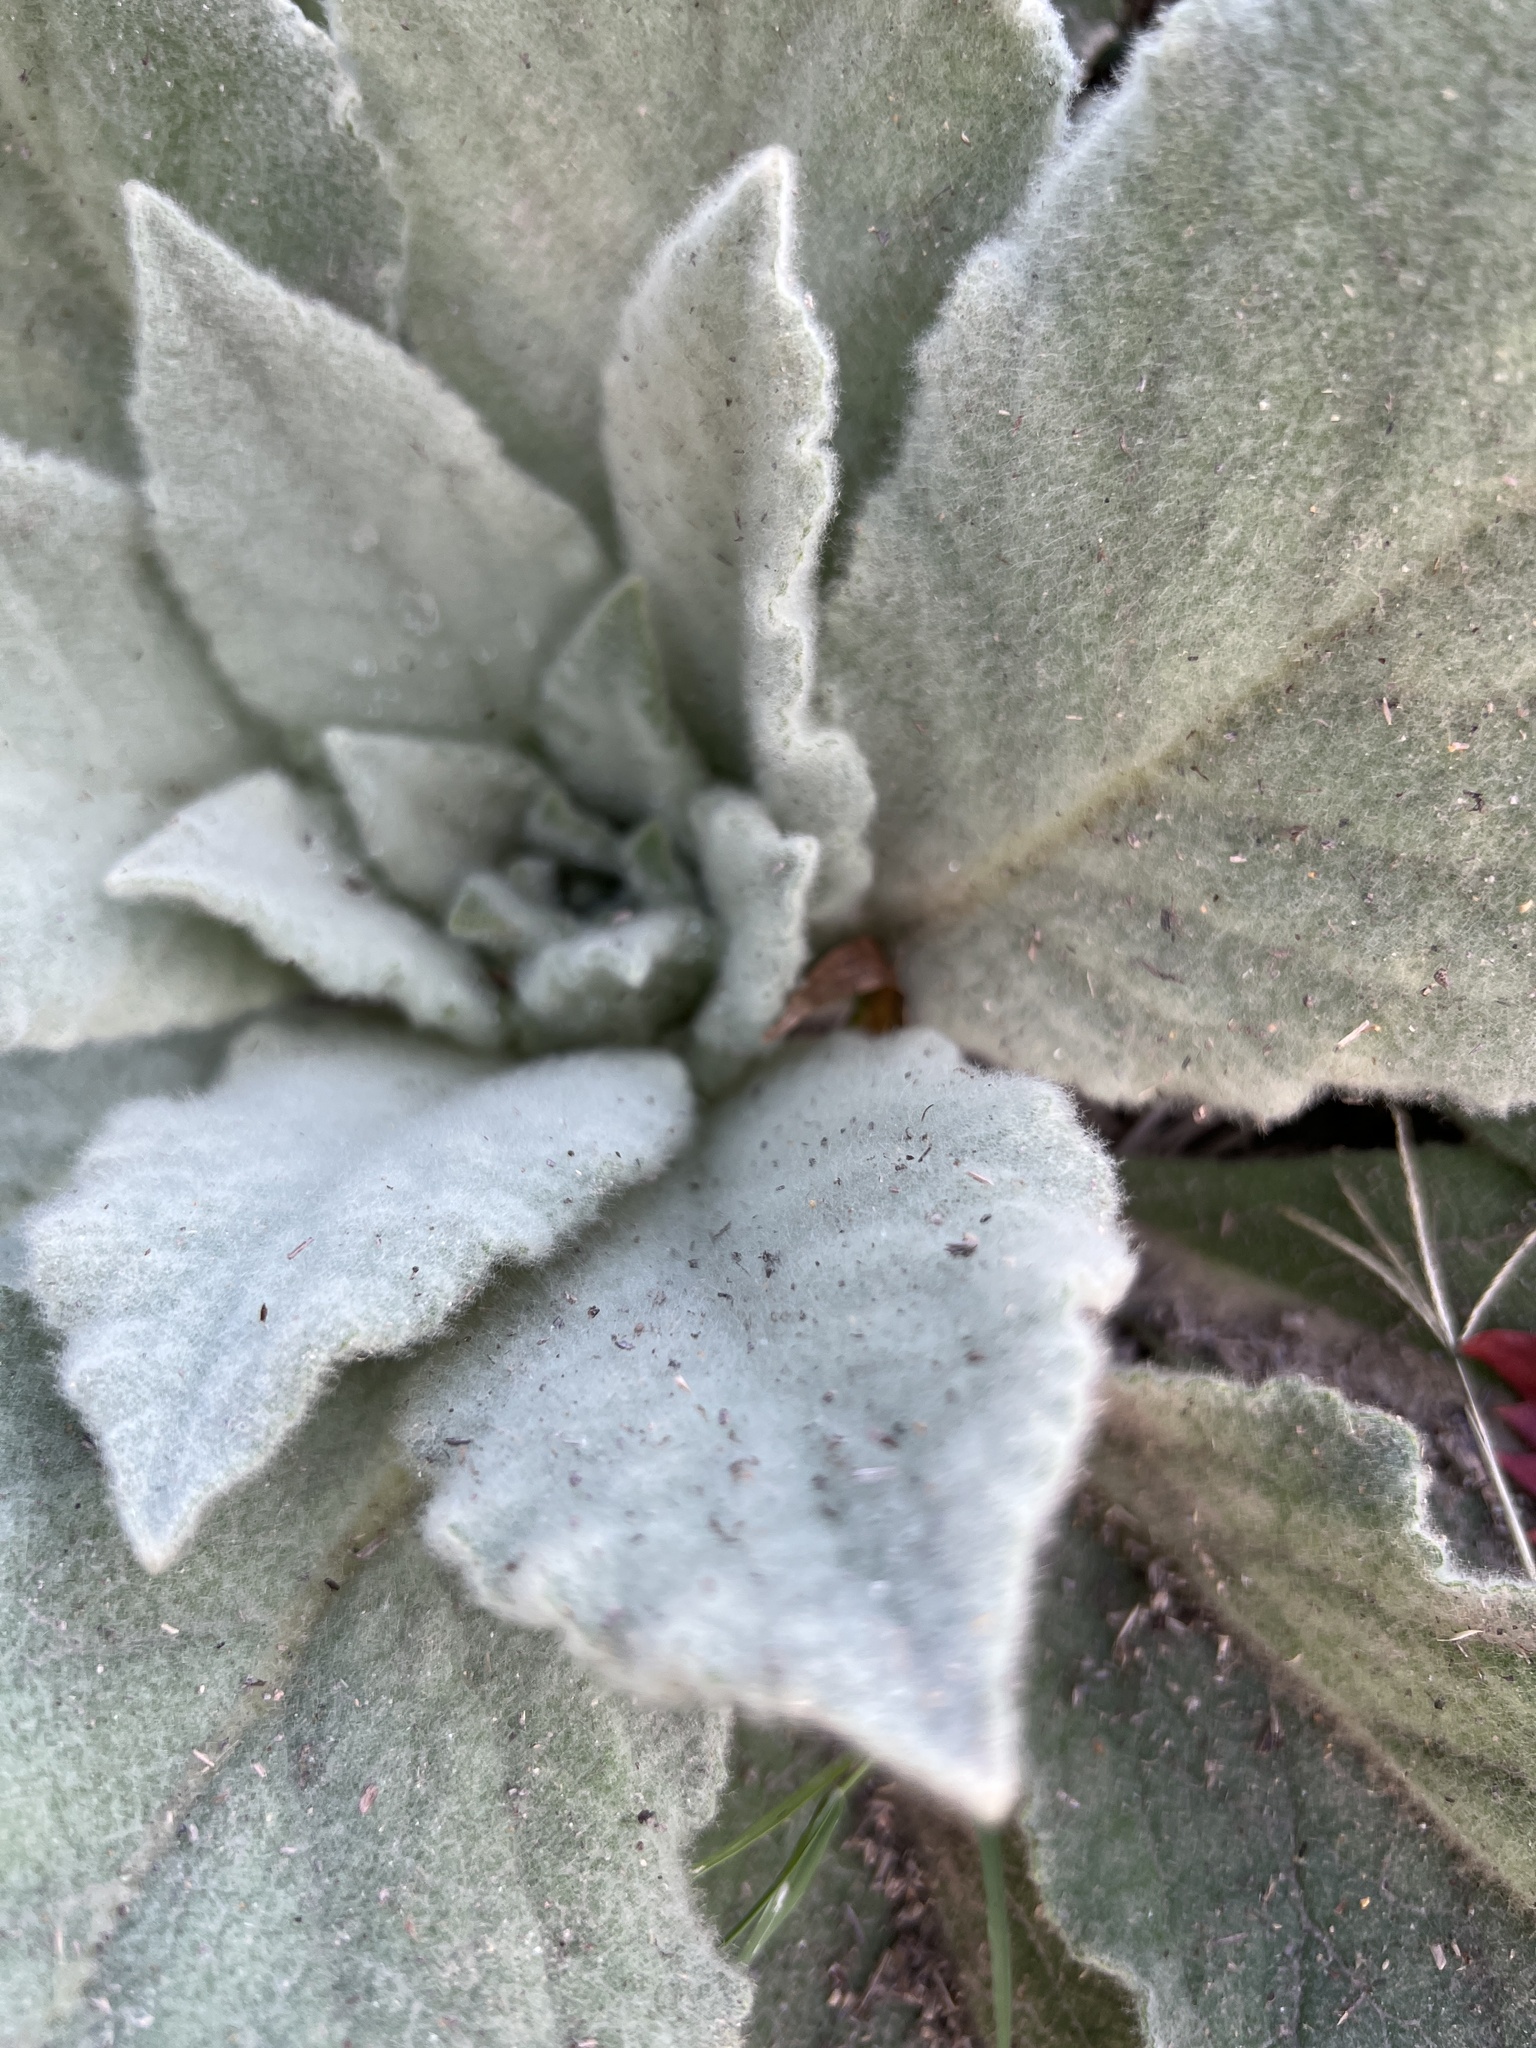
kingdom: Plantae
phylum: Tracheophyta
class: Magnoliopsida
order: Lamiales
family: Scrophulariaceae
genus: Verbascum
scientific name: Verbascum thapsus
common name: Common mullein
